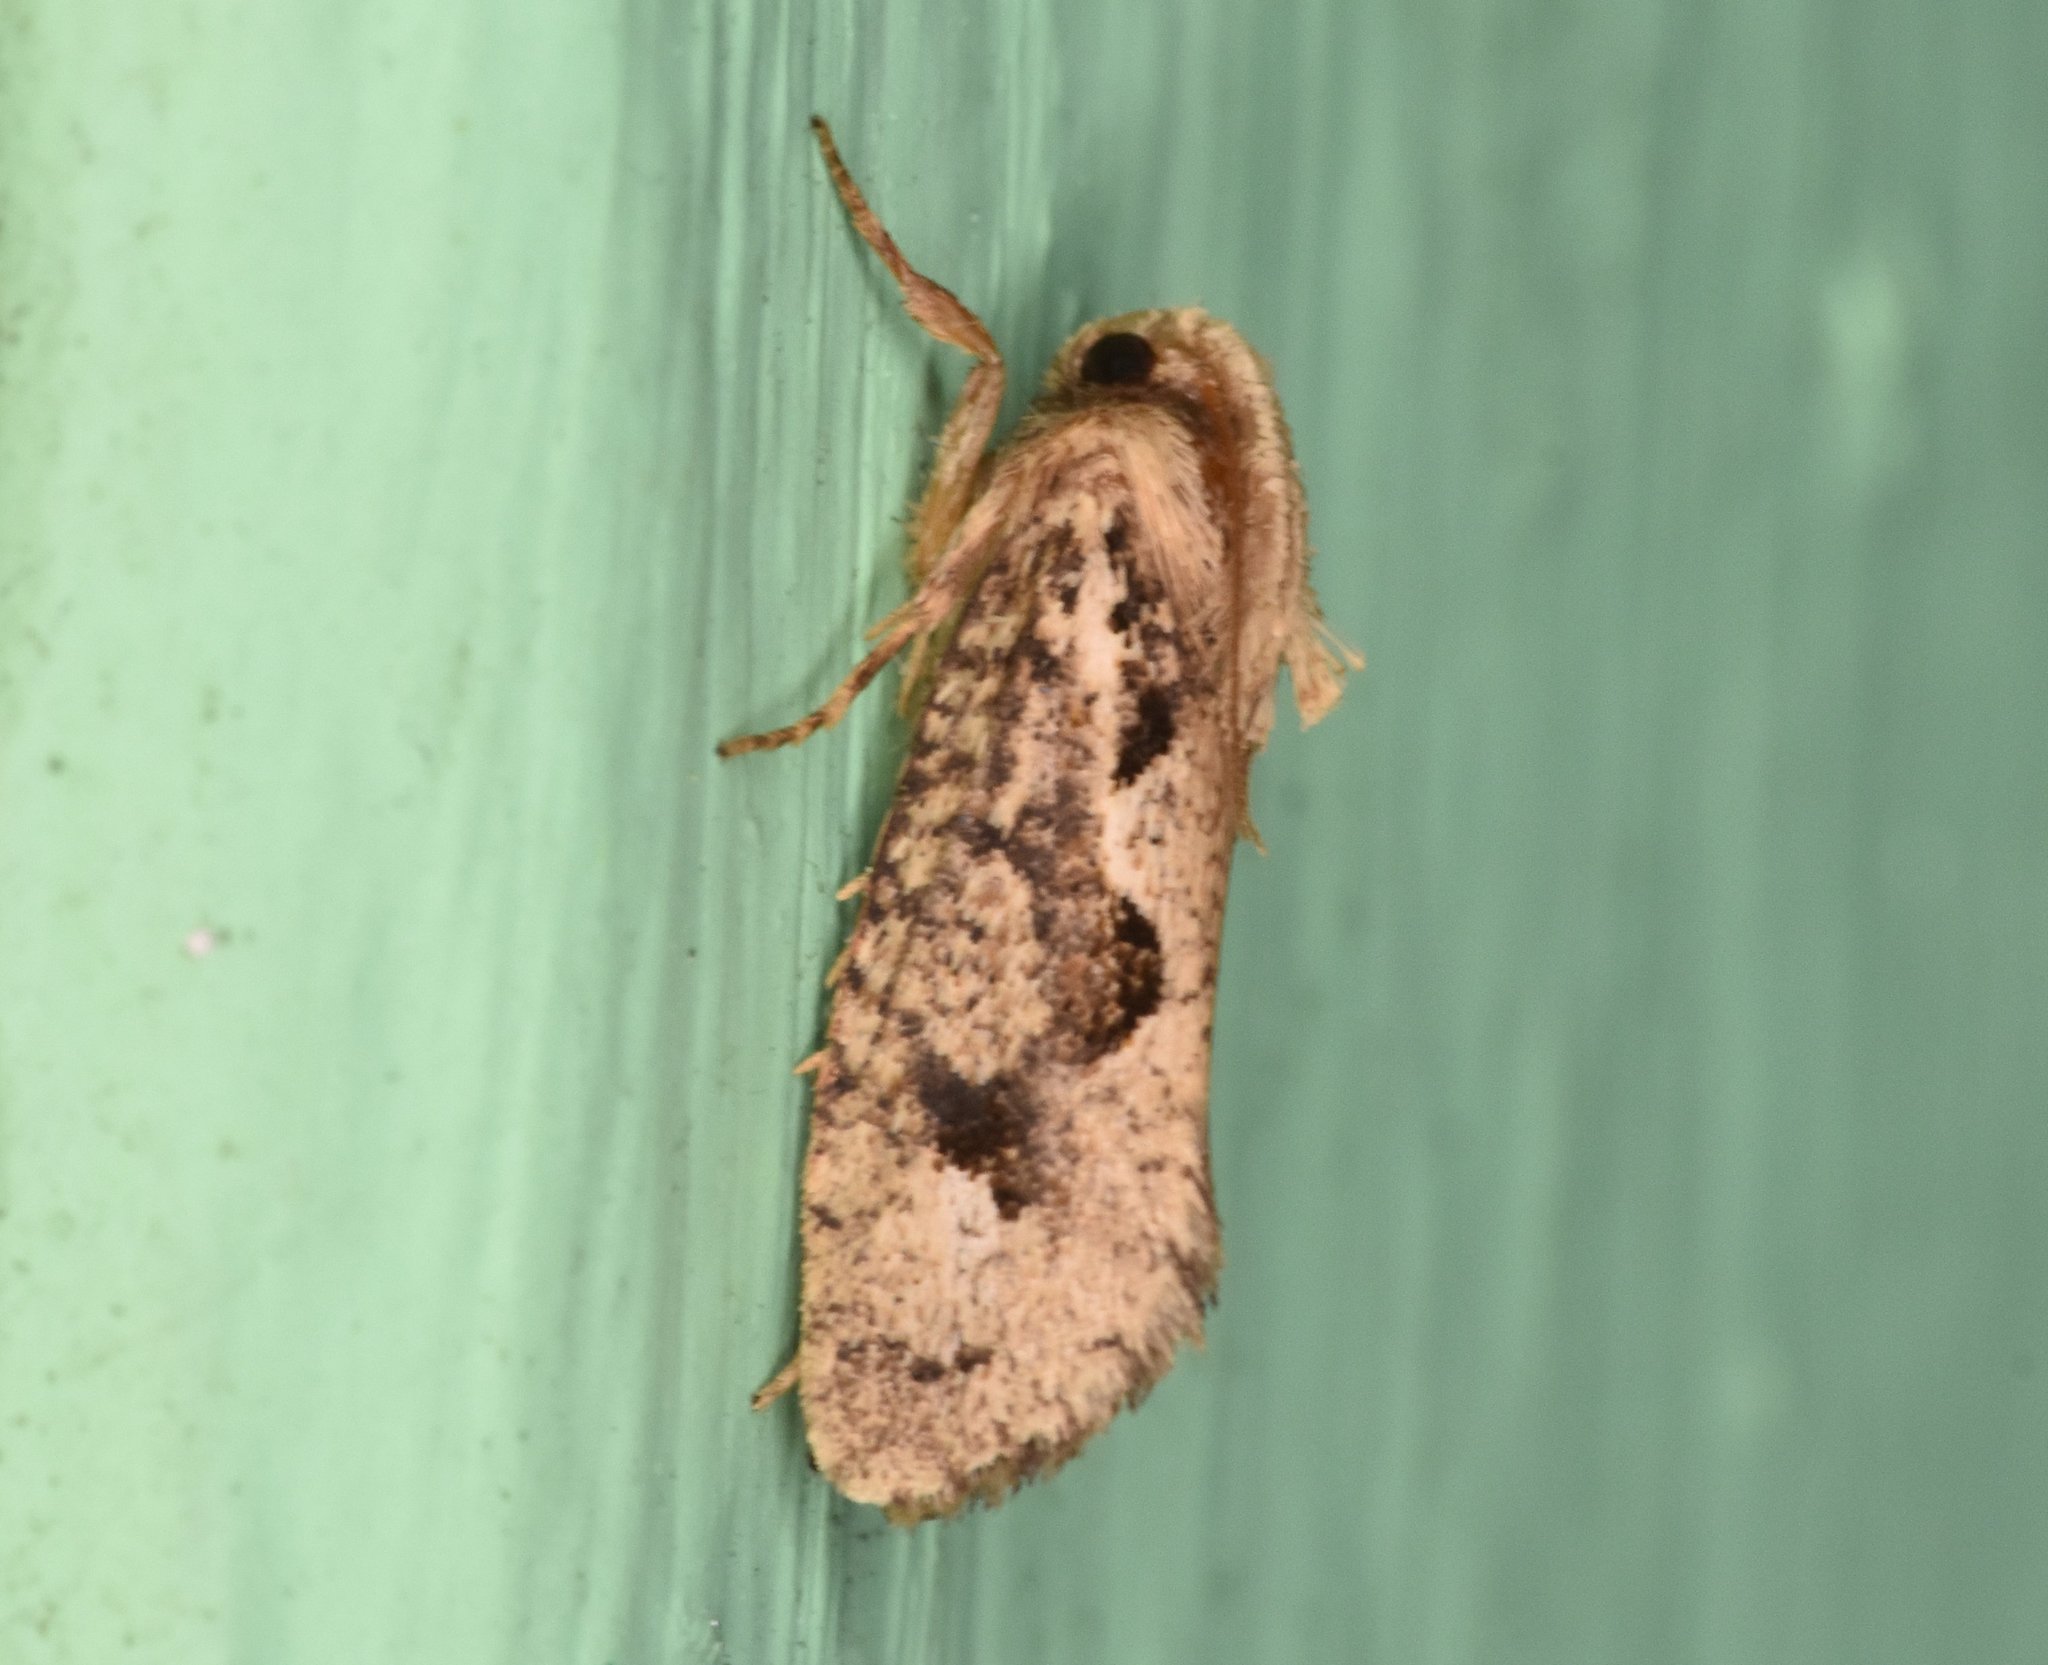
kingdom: Animalia
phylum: Arthropoda
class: Insecta
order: Lepidoptera
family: Tineidae
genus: Acrolophus
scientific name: Acrolophus walsinghami
